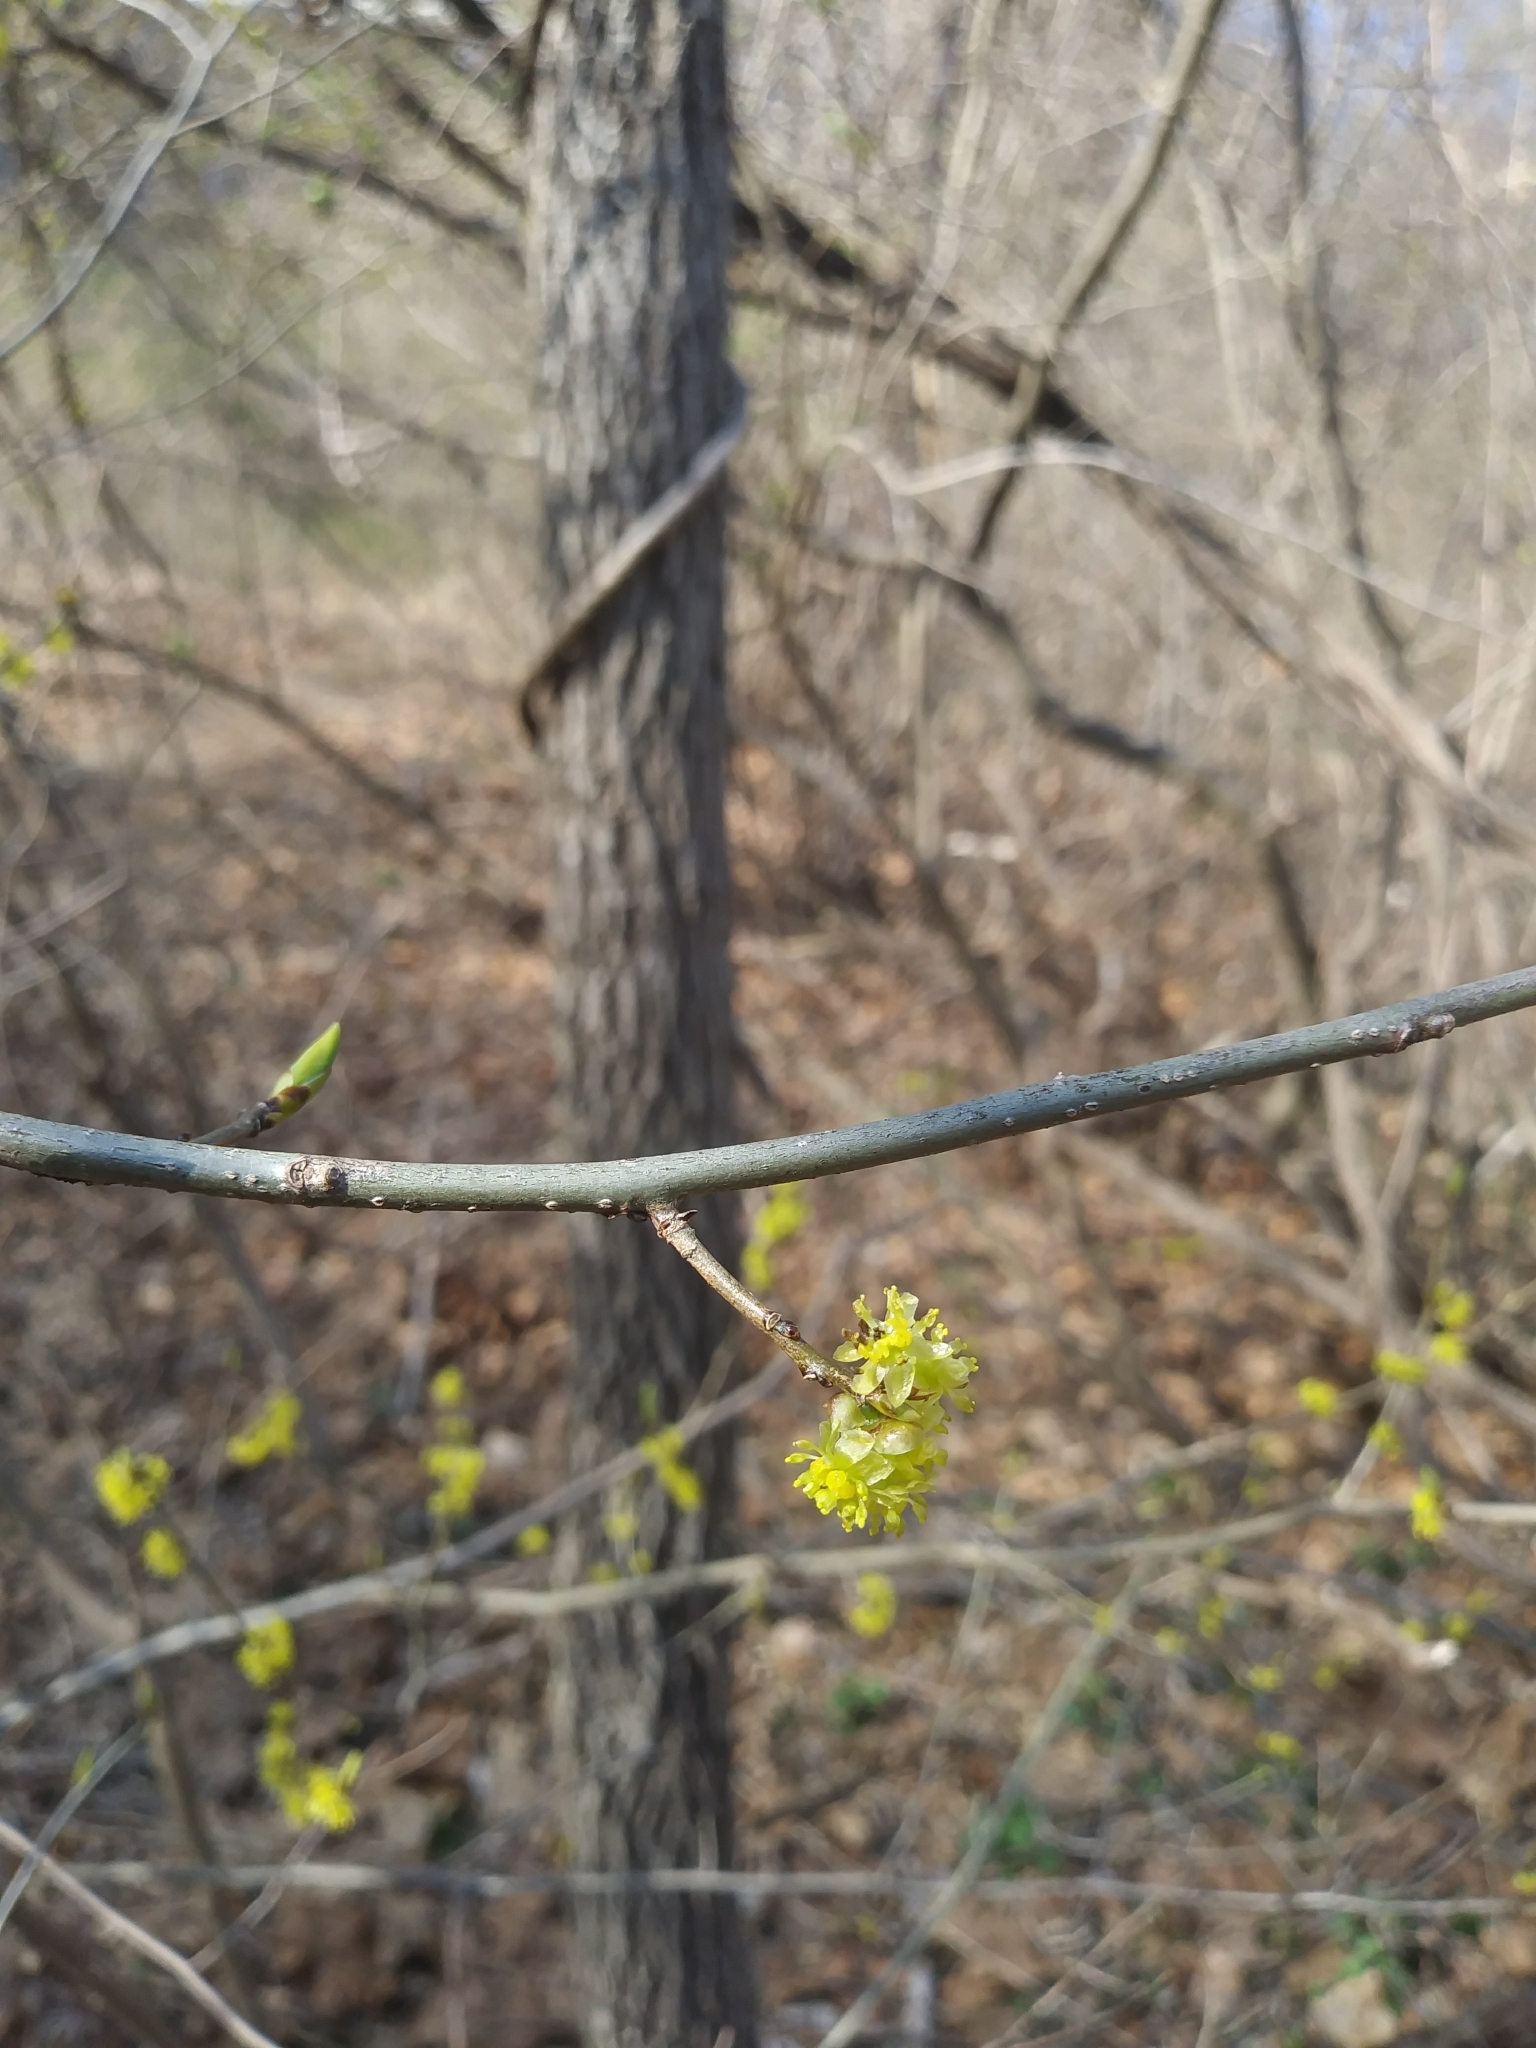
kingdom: Plantae
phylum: Tracheophyta
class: Magnoliopsida
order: Laurales
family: Lauraceae
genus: Lindera
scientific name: Lindera benzoin
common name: Spicebush
